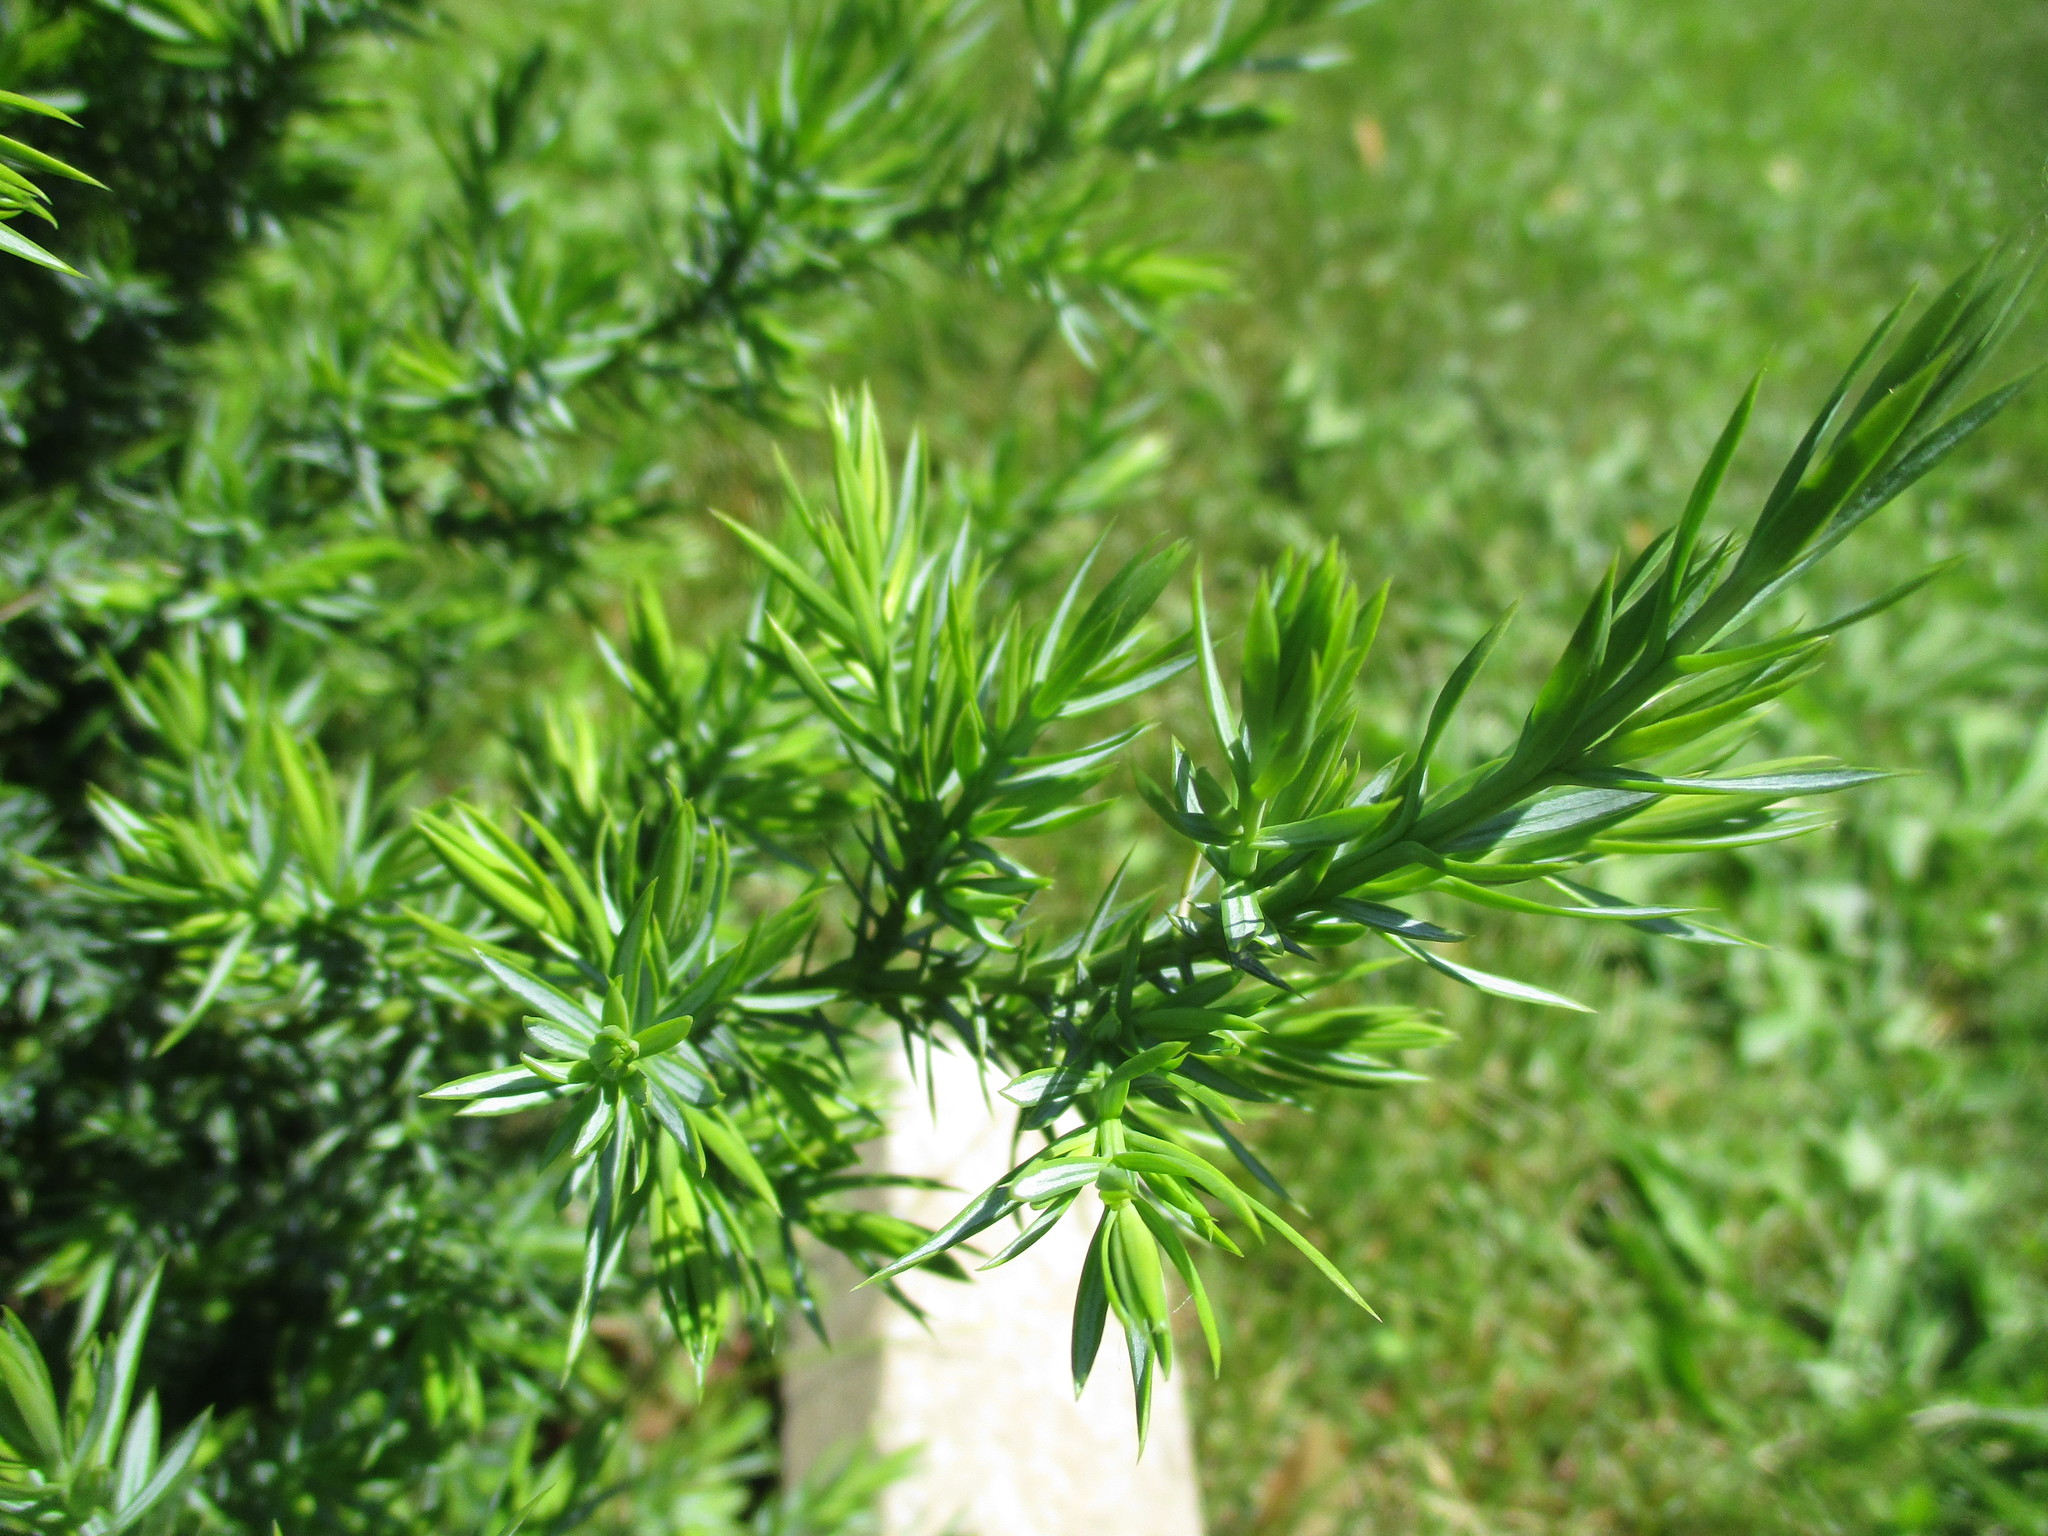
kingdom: Plantae
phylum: Tracheophyta
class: Pinopsida
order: Pinales
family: Cupressaceae
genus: Juniperus
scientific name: Juniperus virginiana
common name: Red juniper
